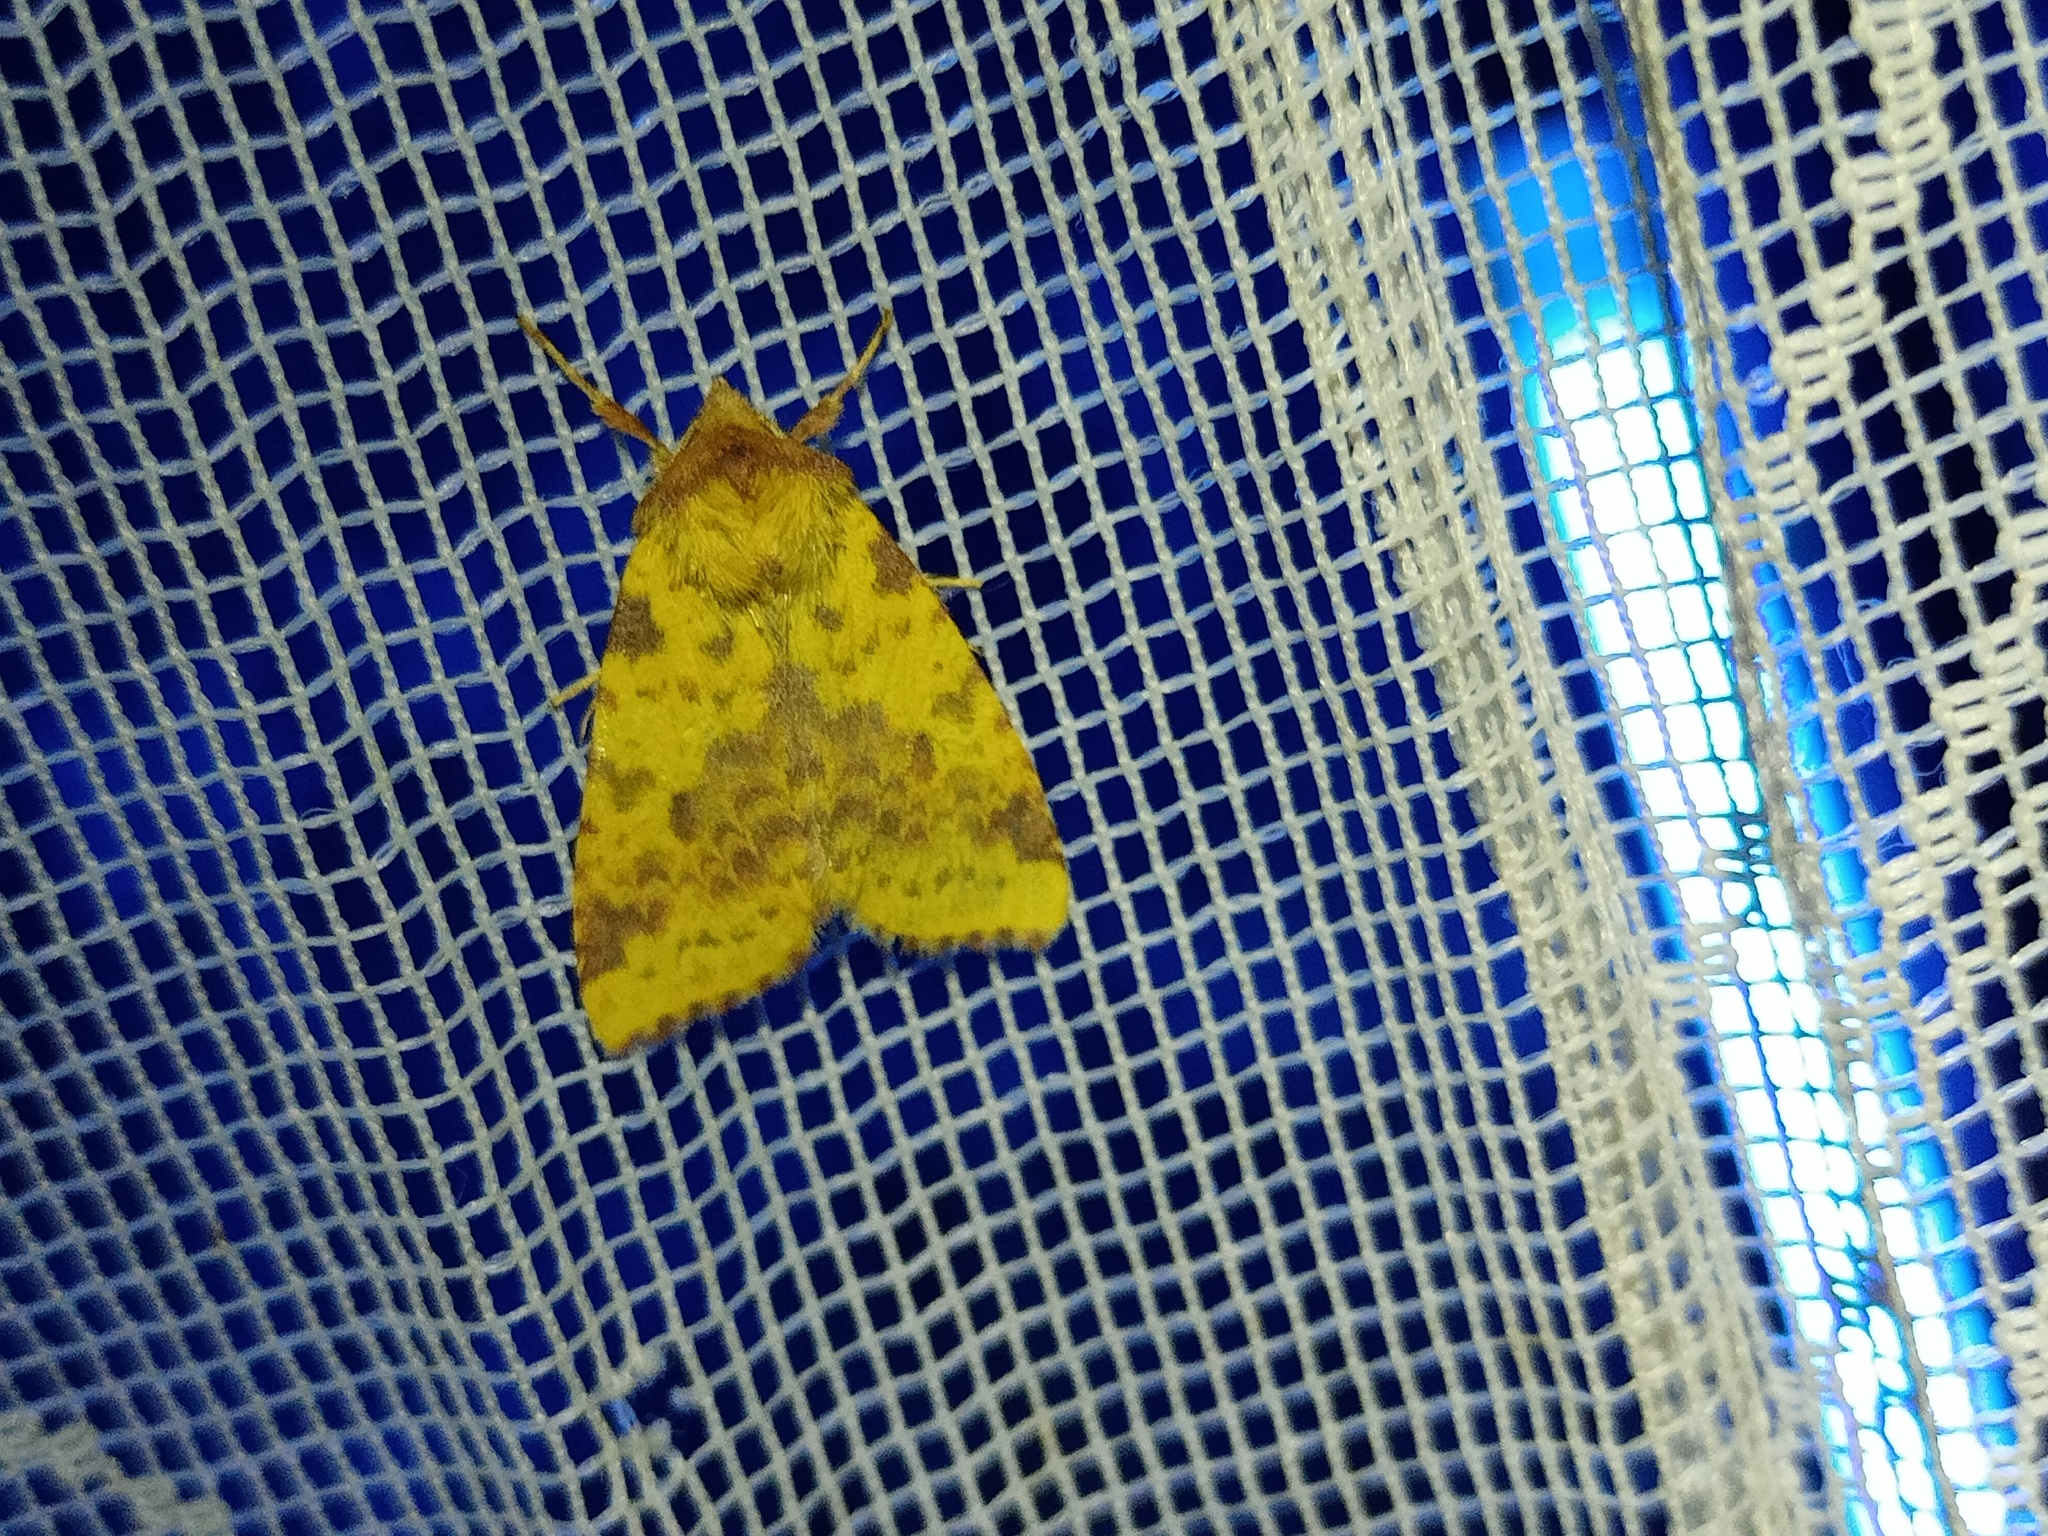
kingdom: Animalia
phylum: Arthropoda
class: Insecta
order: Lepidoptera
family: Noctuidae
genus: Xanthia
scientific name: Xanthia togata
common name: Pink-barred sallow
